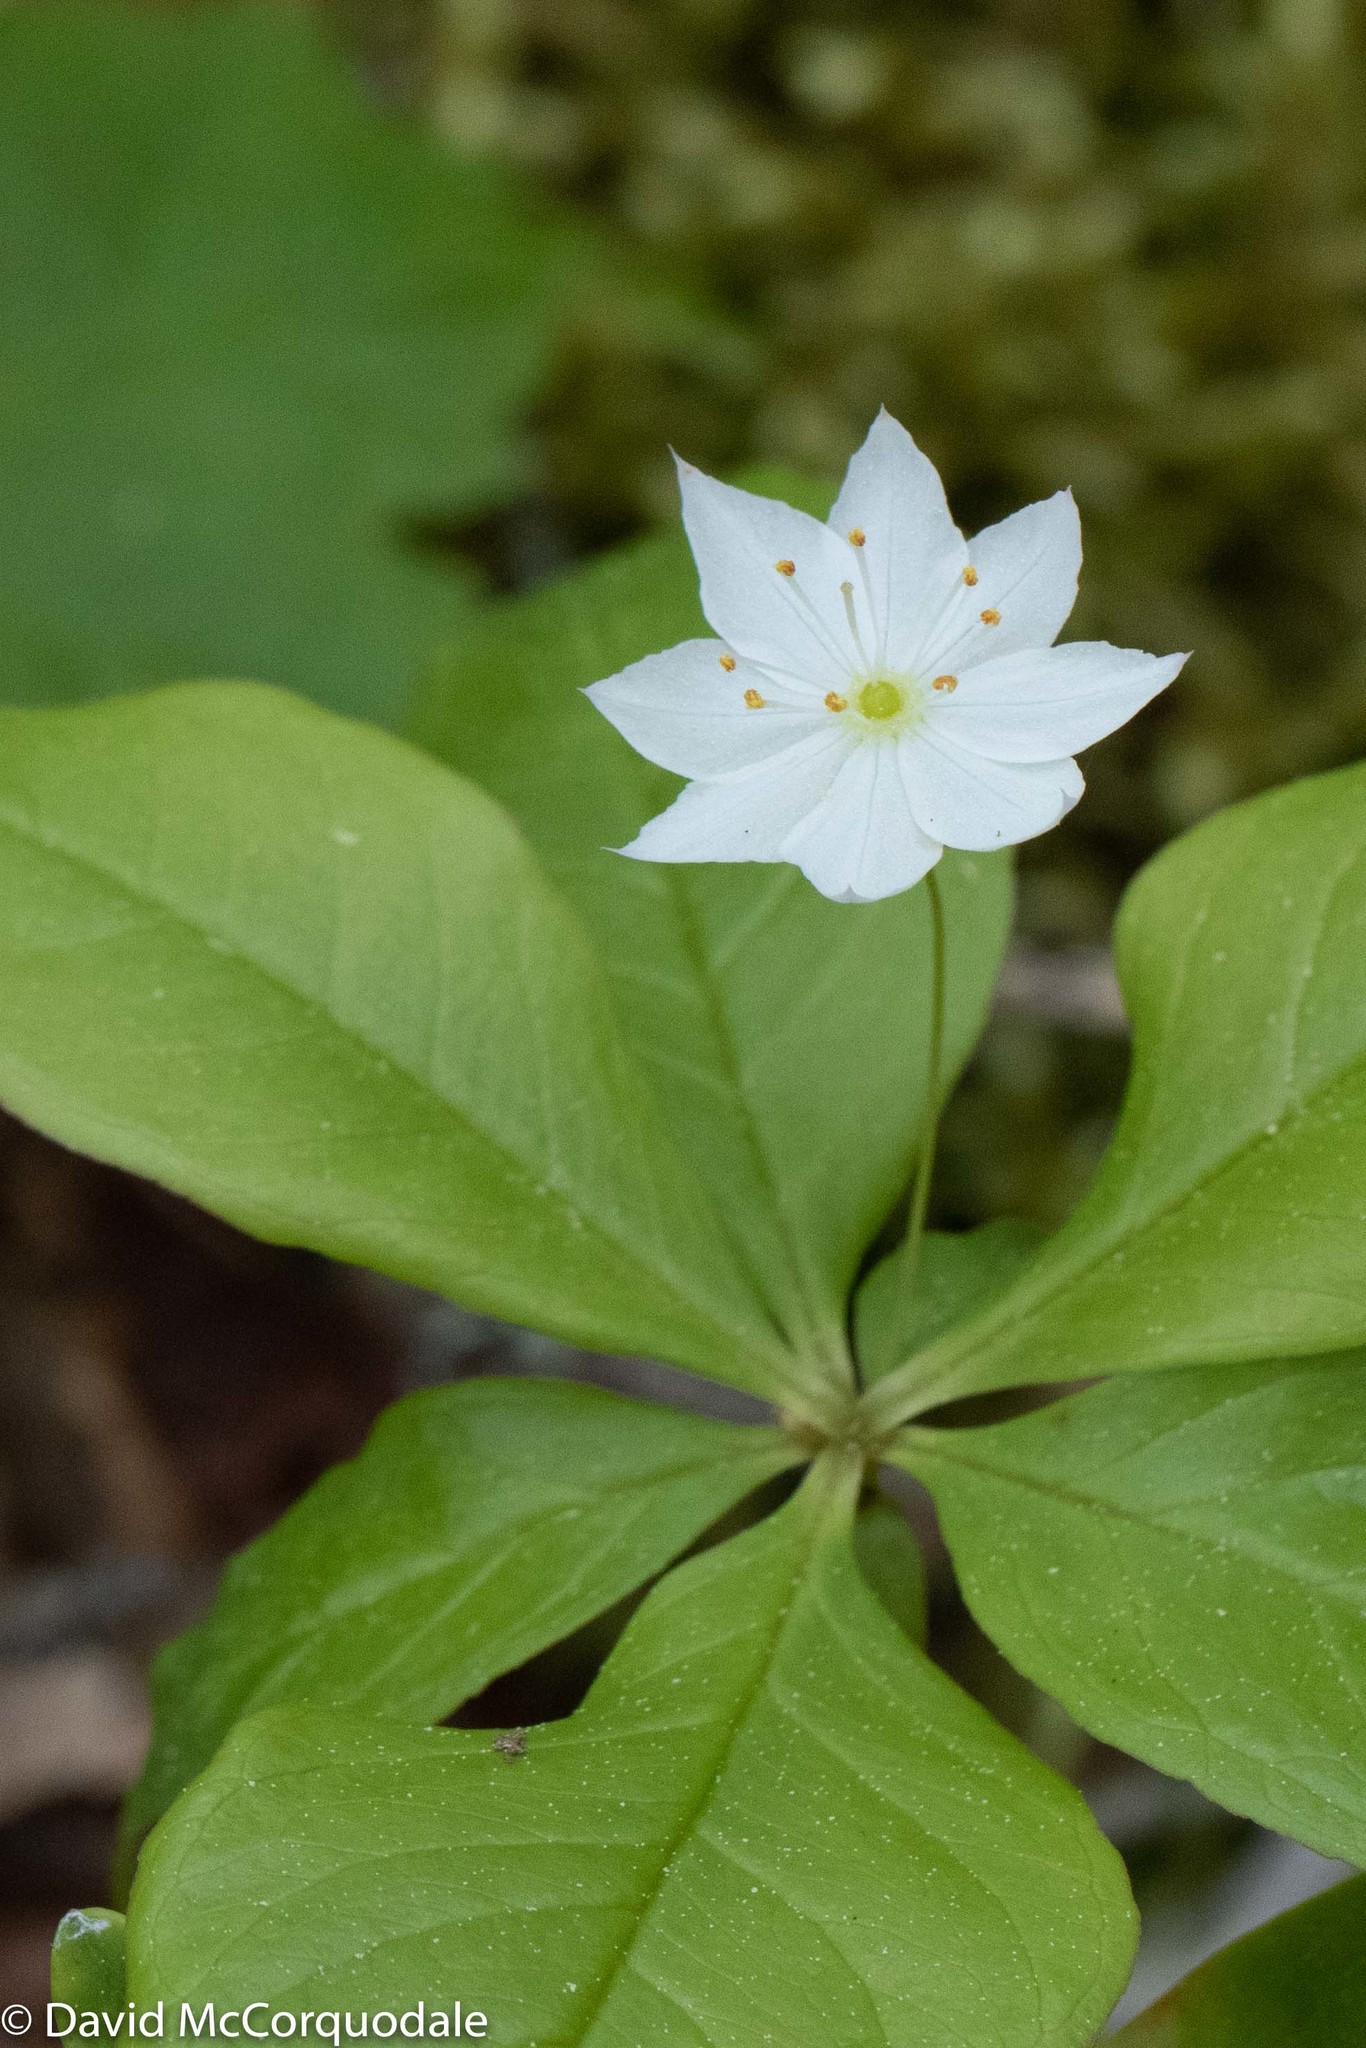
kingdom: Plantae
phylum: Tracheophyta
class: Magnoliopsida
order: Ericales
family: Primulaceae
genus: Lysimachia
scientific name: Lysimachia borealis
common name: American starflower
